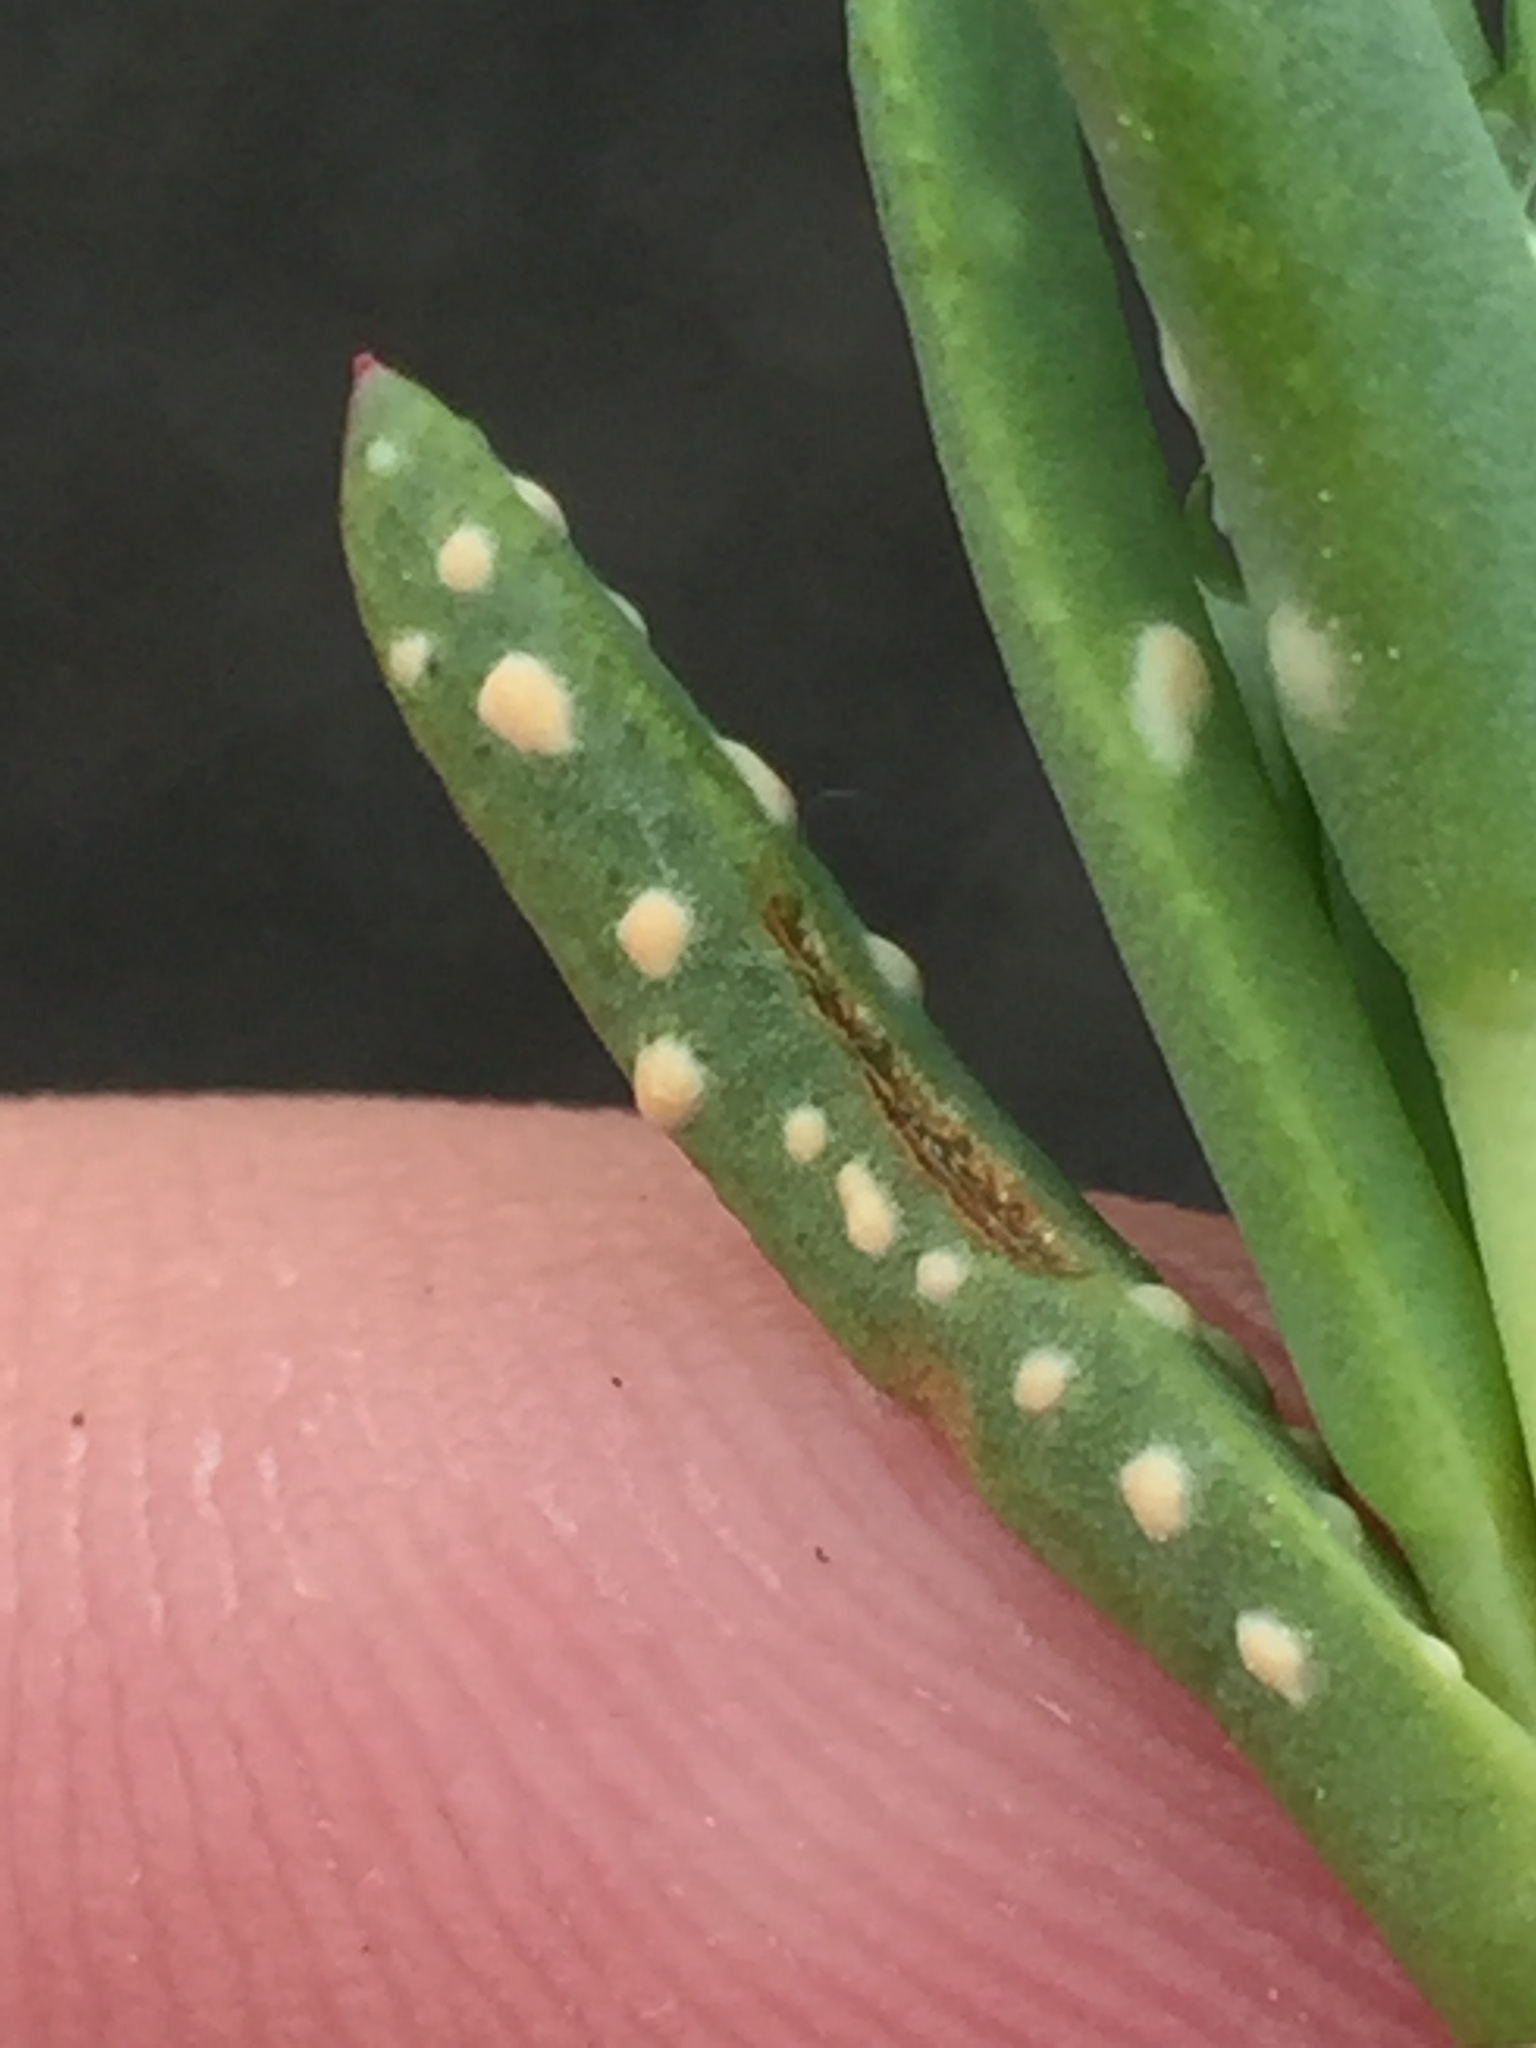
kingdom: Chromista
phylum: Oomycota
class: Peronosporea
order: Albuginales
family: Albuginaceae
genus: Albugo
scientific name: Albugo trianthemae
